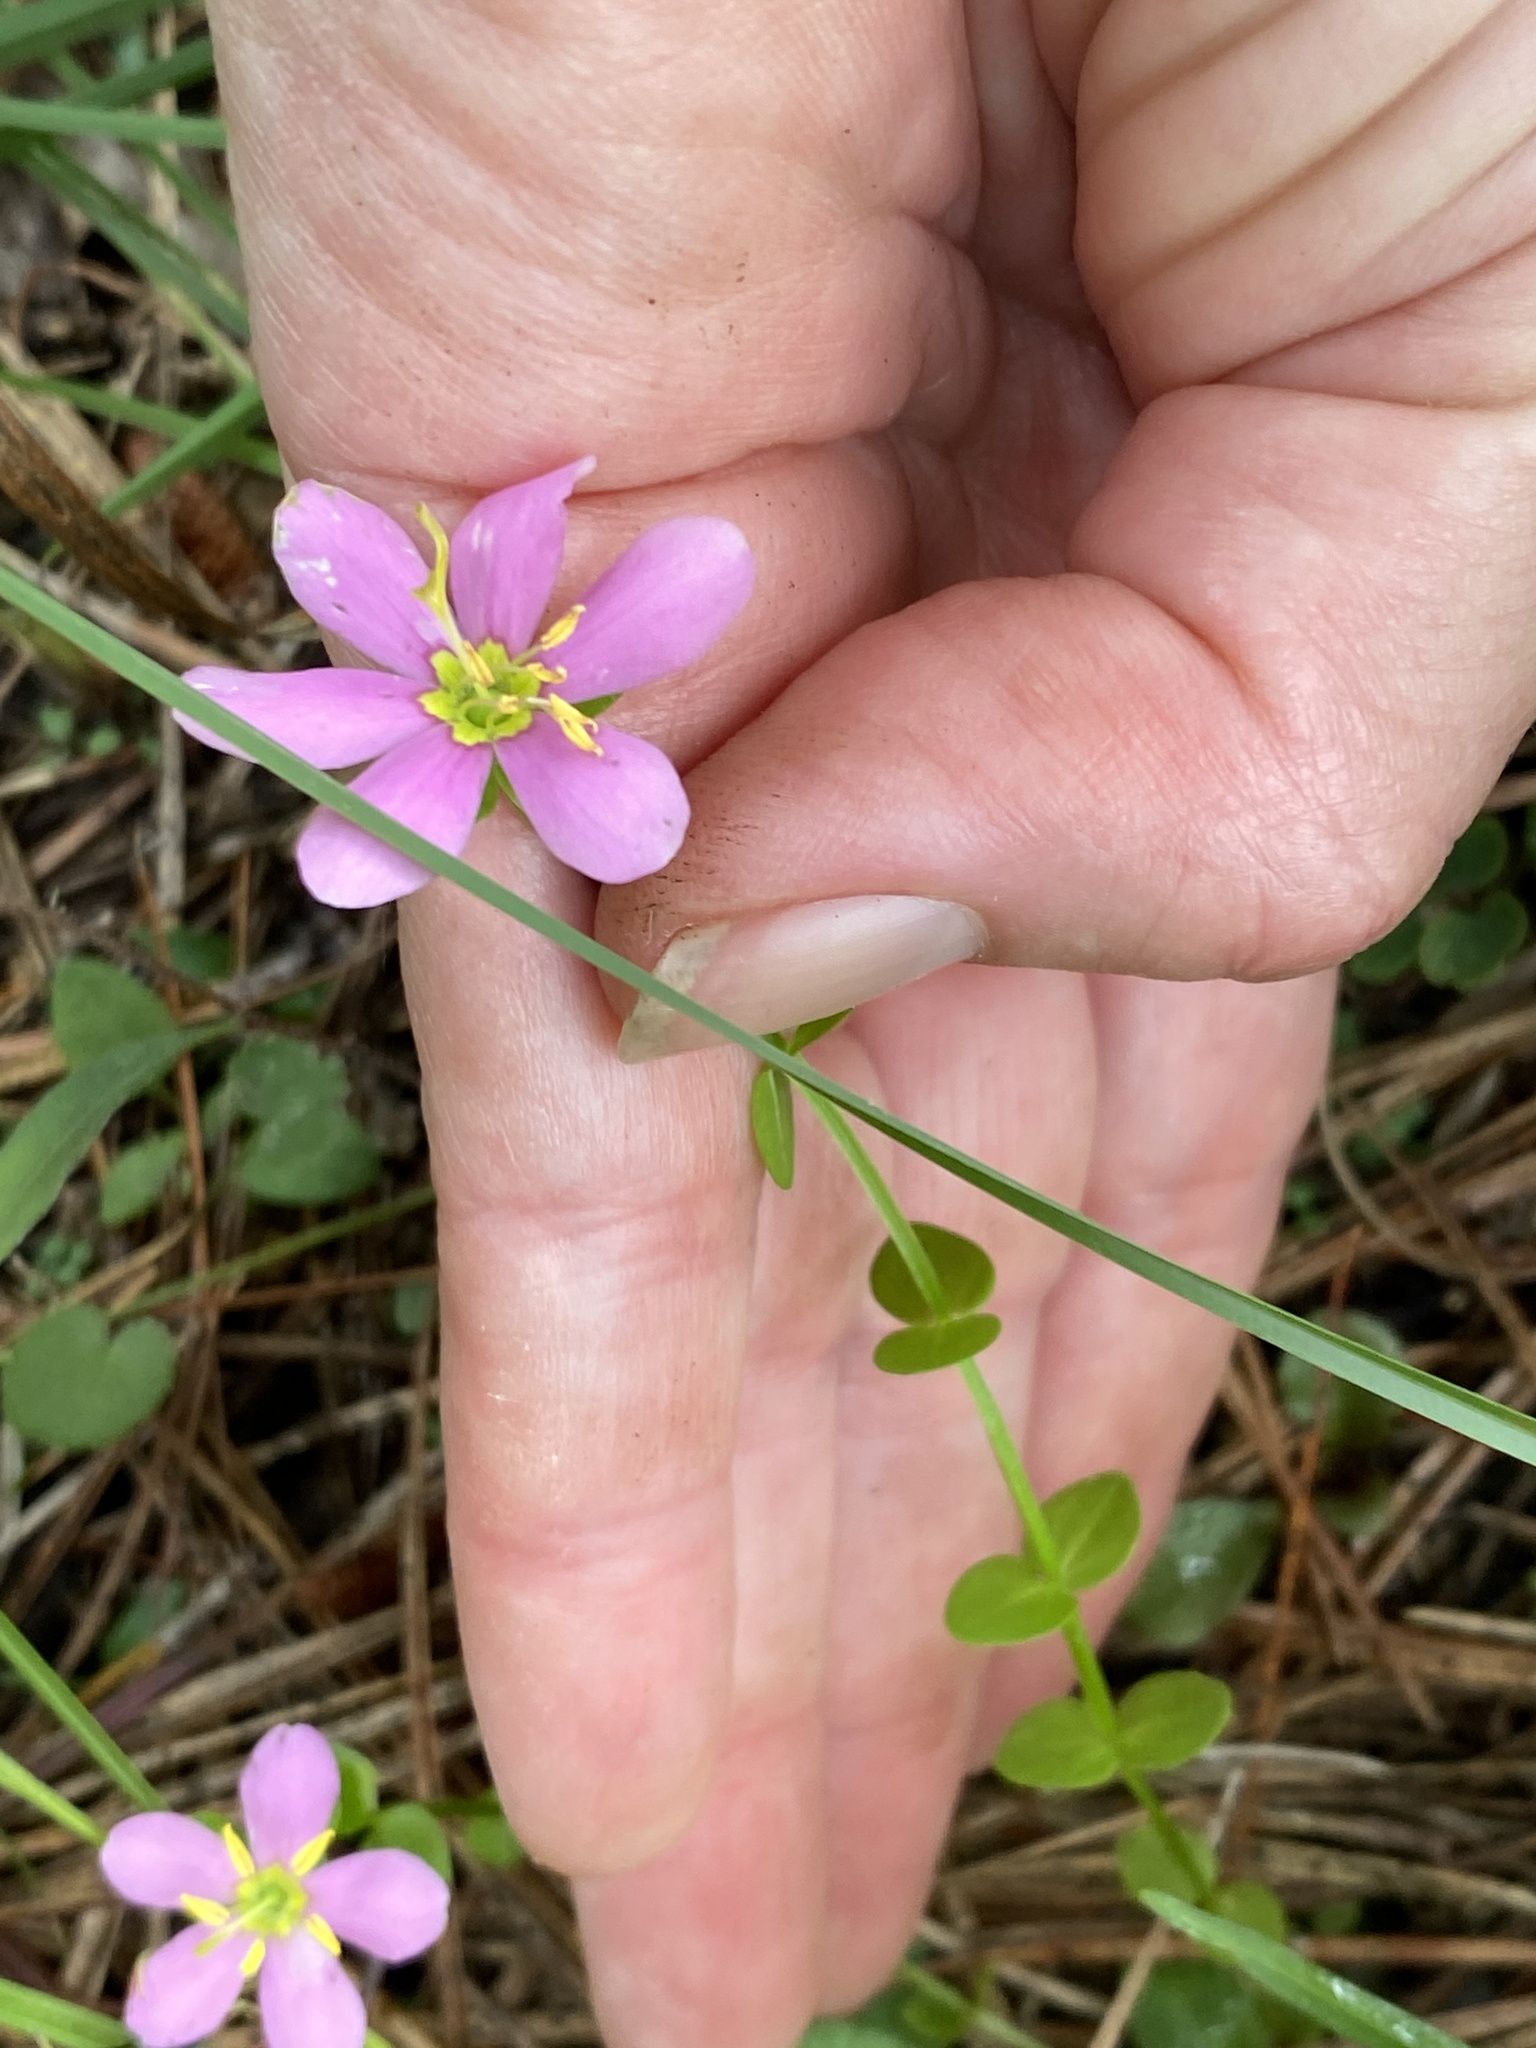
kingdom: Plantae
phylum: Tracheophyta
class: Magnoliopsida
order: Gentianales
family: Gentianaceae
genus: Sabatia
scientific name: Sabatia angularis
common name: Rose-pink
